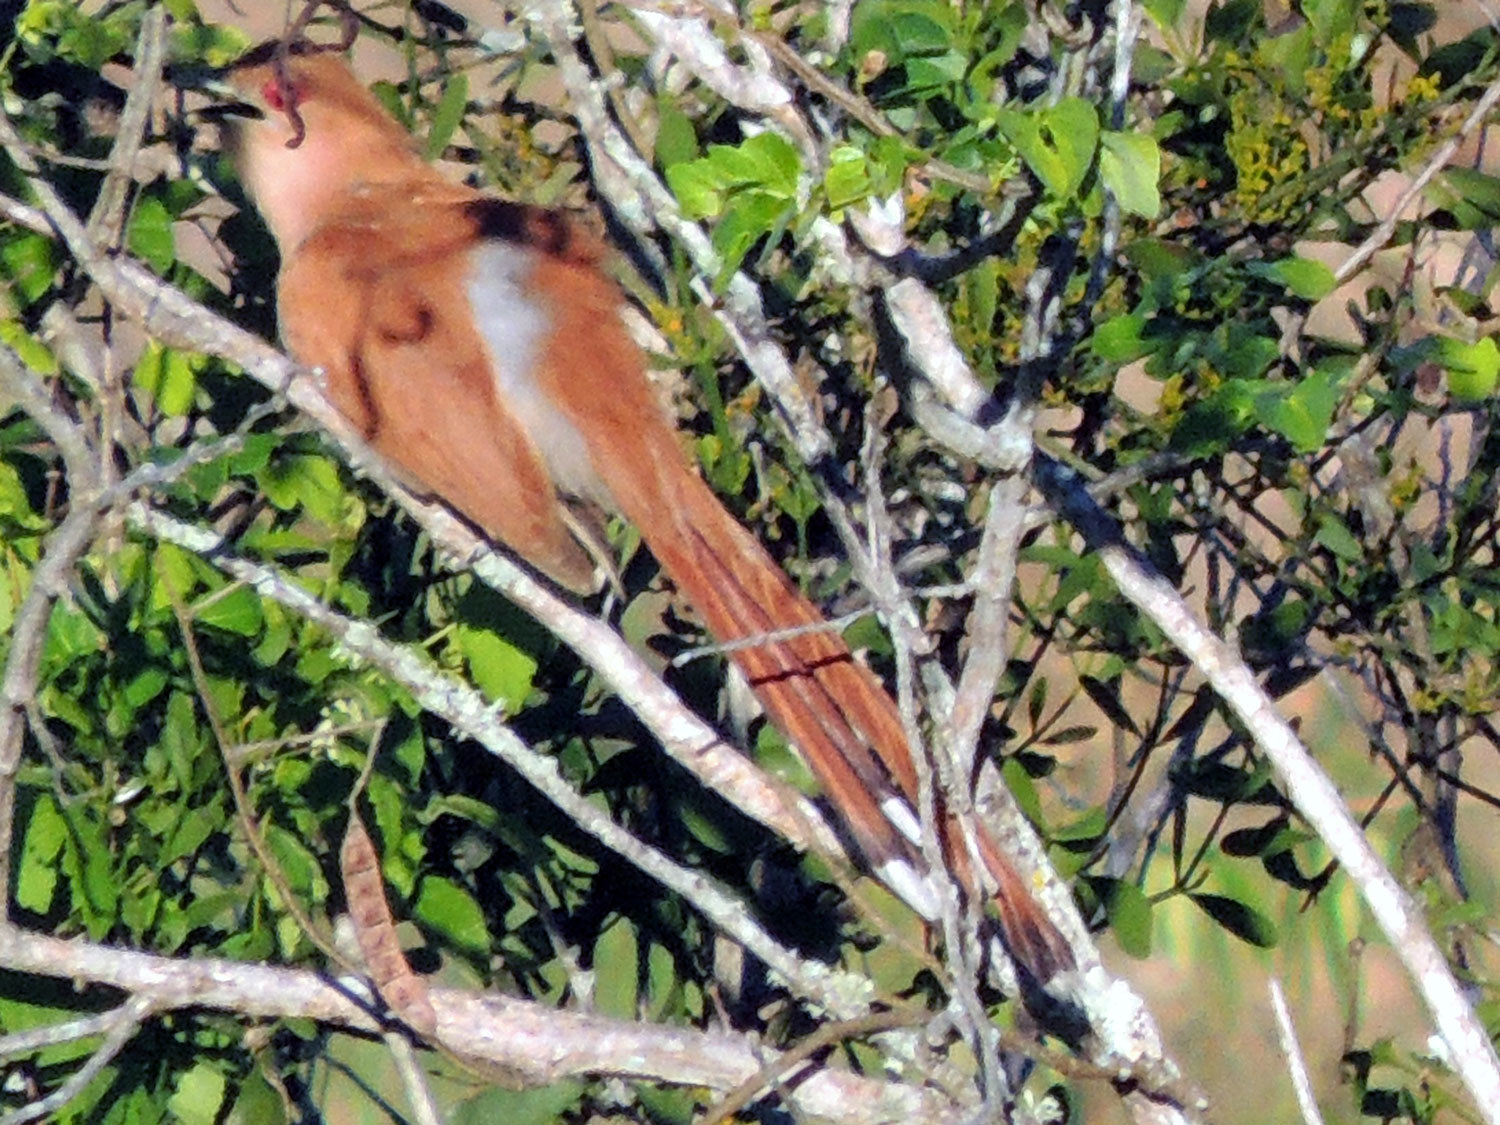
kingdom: Animalia
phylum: Chordata
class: Aves
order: Cuculiformes
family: Cuculidae
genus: Piaya
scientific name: Piaya cayana
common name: Squirrel cuckoo
